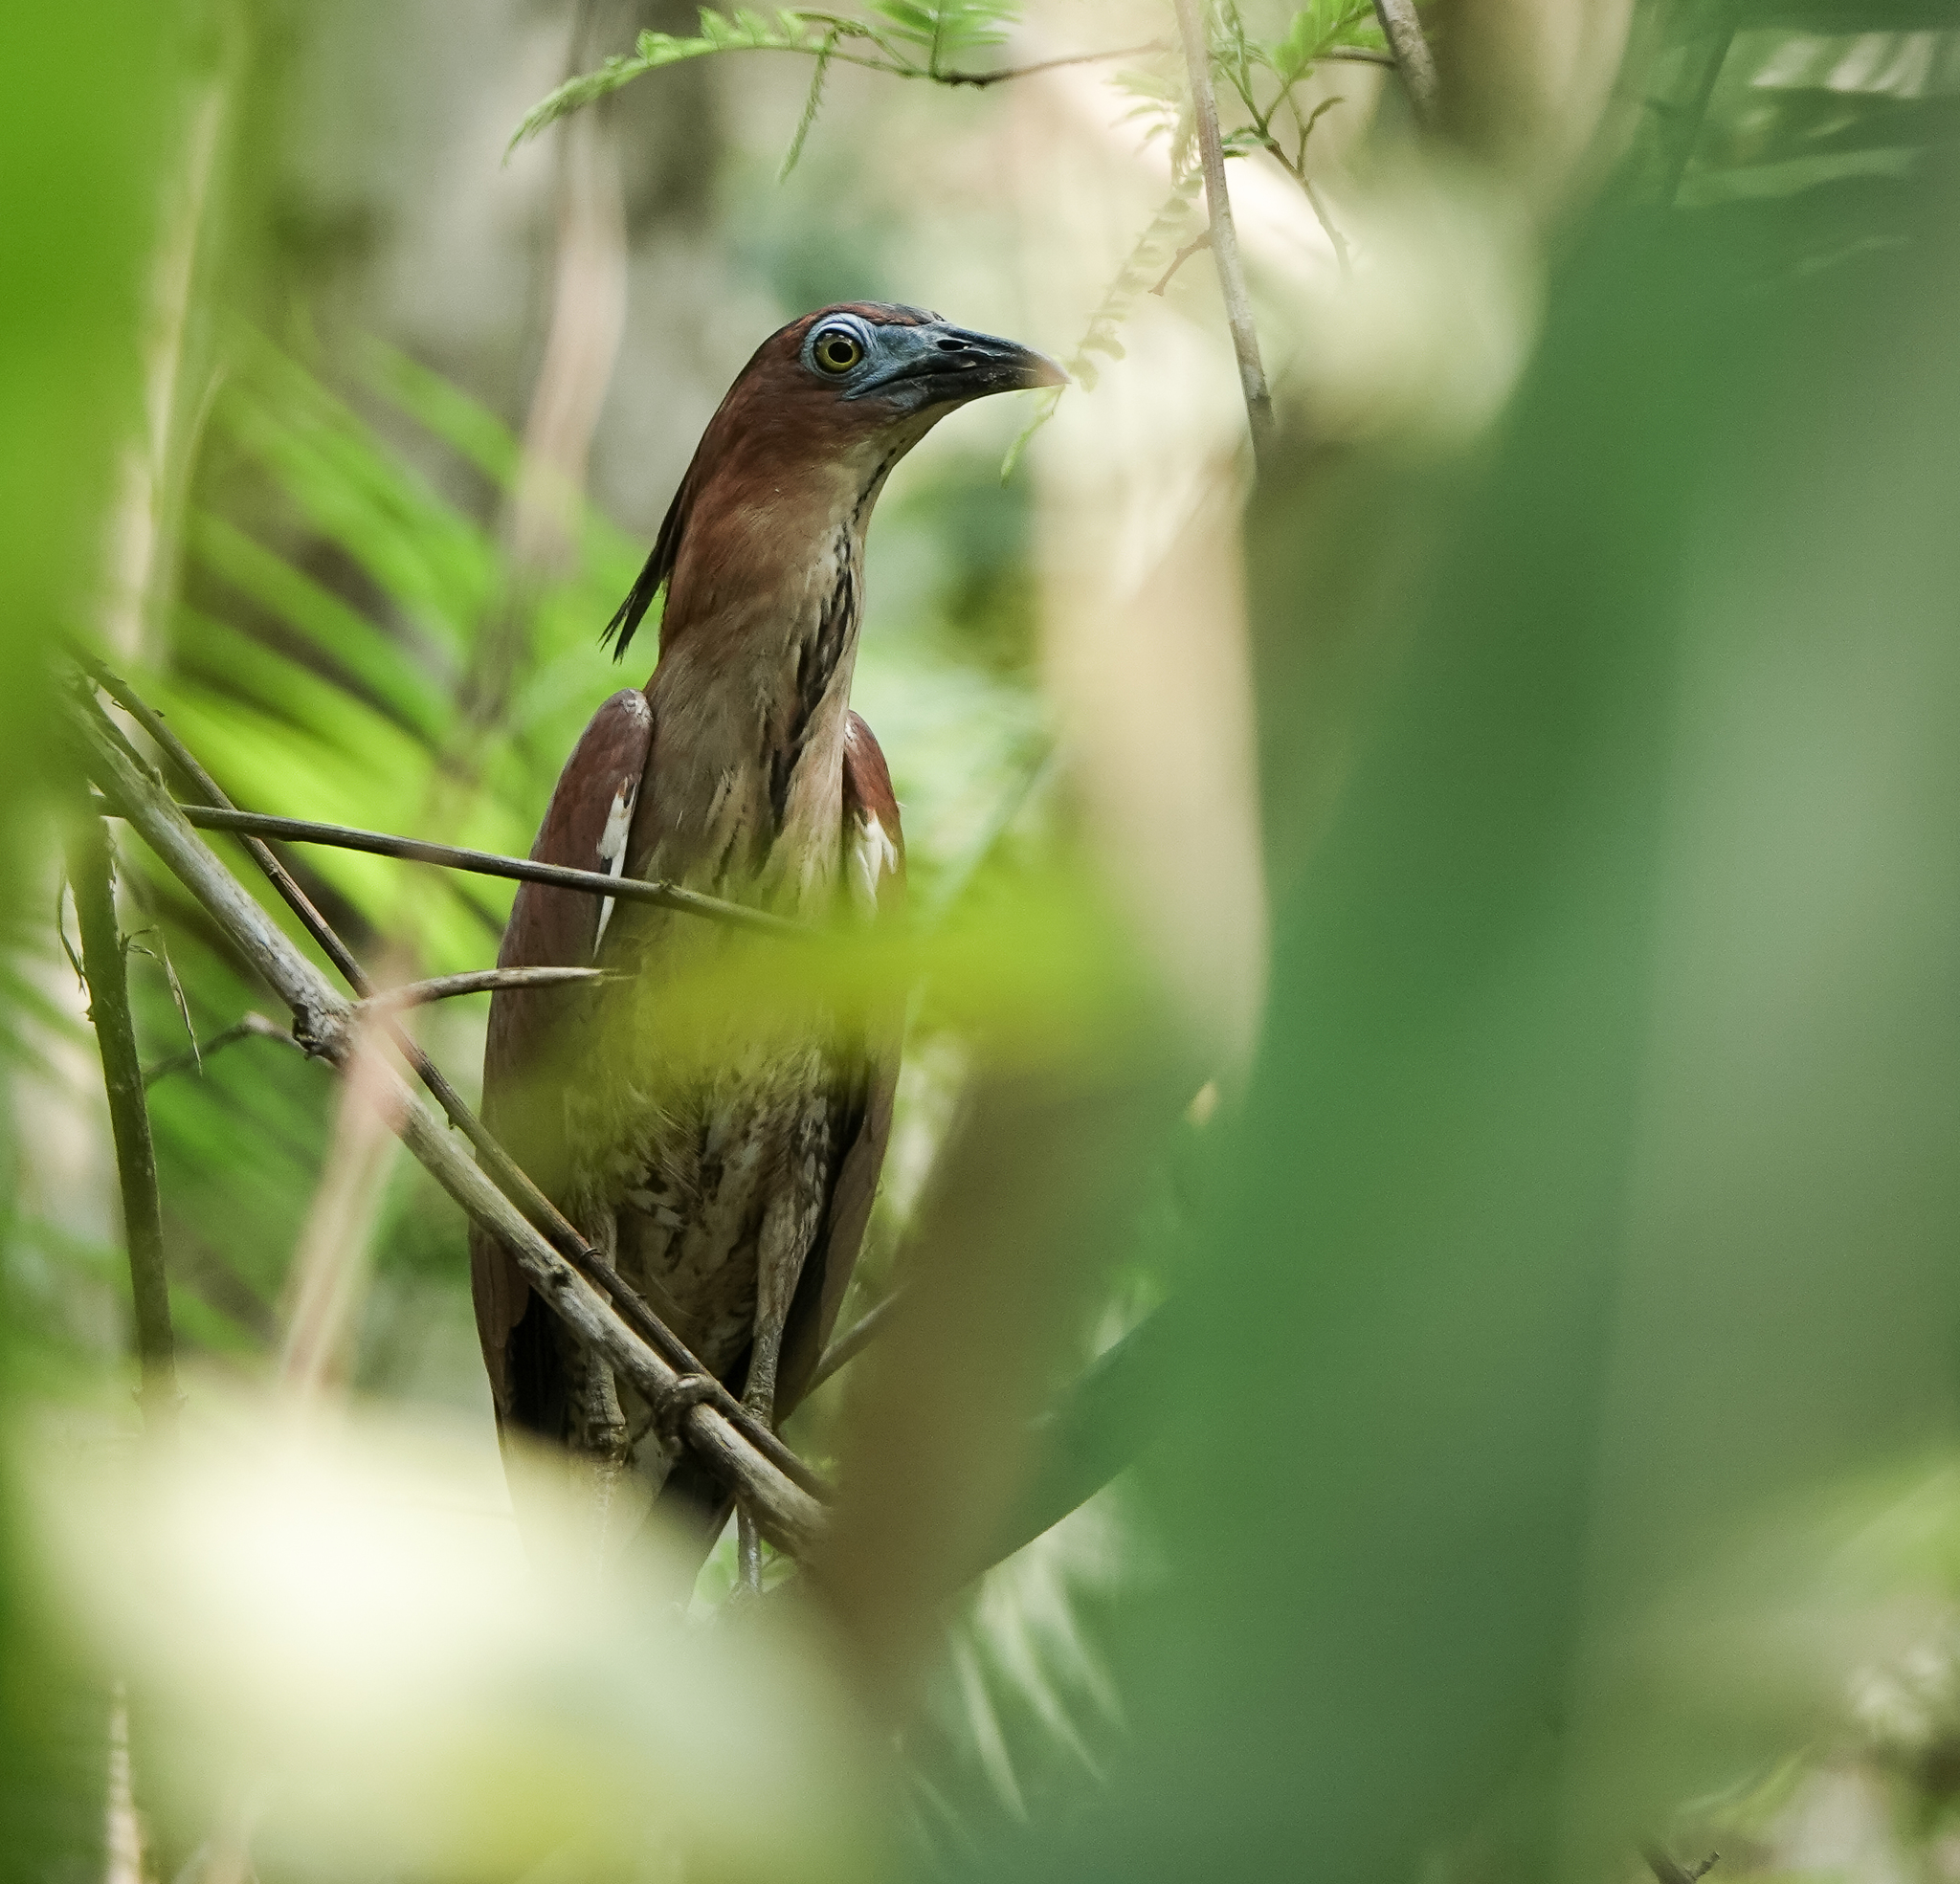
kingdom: Animalia
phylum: Chordata
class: Aves
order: Pelecaniformes
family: Ardeidae
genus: Gorsachius
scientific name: Gorsachius melanolophus
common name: Malayan night heron
